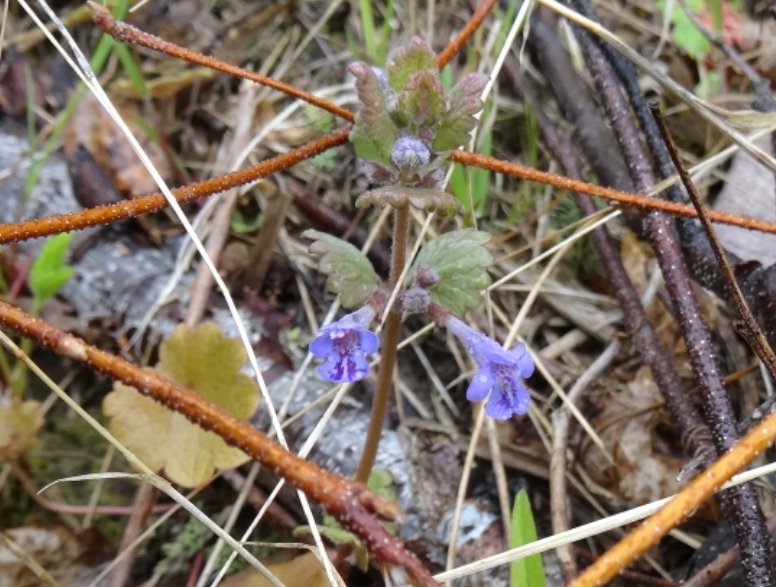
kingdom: Plantae
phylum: Tracheophyta
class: Magnoliopsida
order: Lamiales
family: Lamiaceae
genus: Glechoma
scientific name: Glechoma hederacea
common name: Ground ivy
